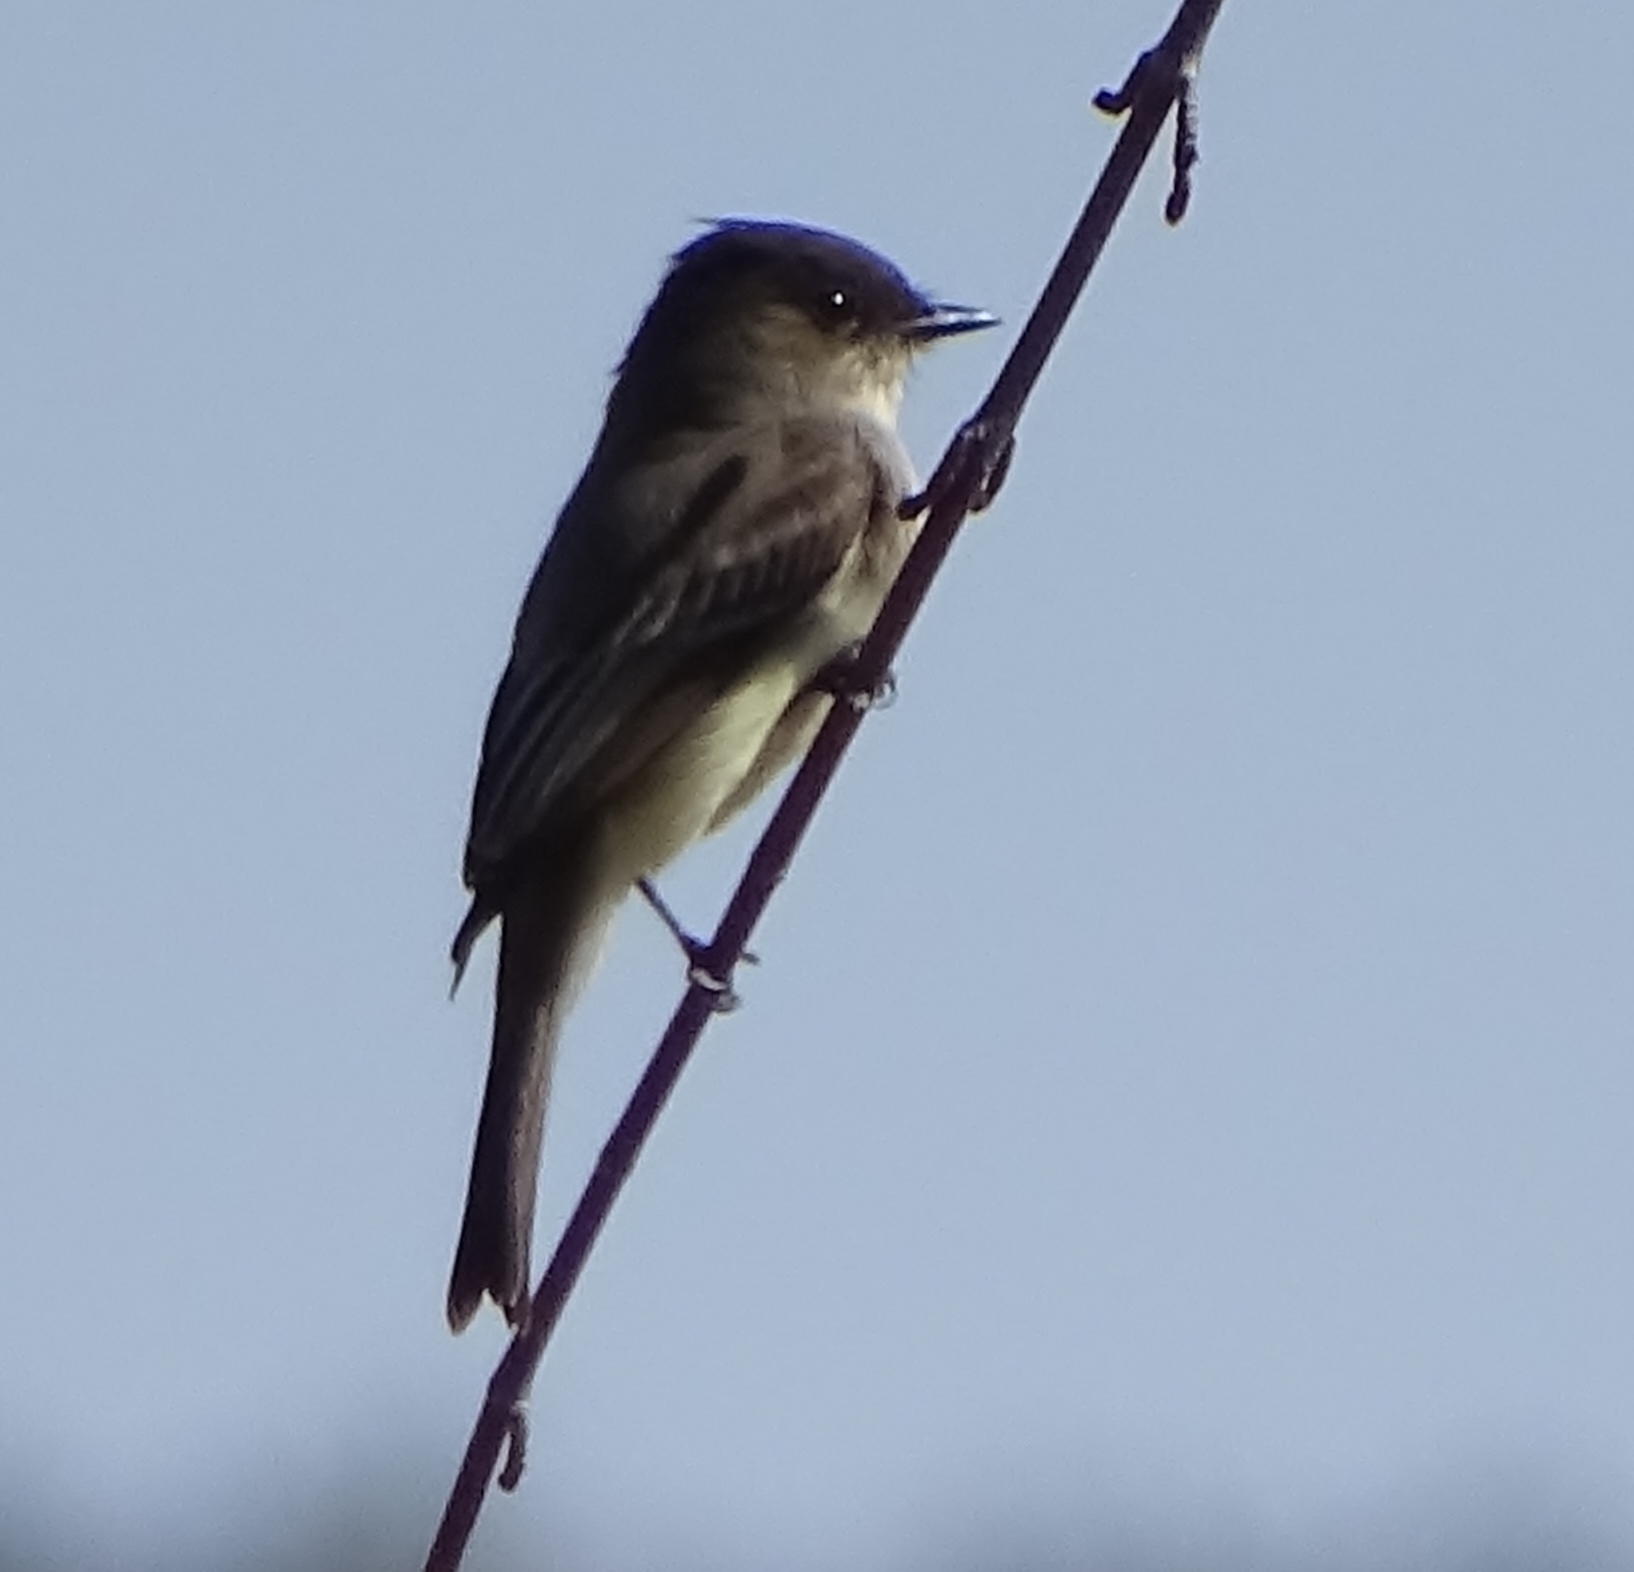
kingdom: Animalia
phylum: Chordata
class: Aves
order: Passeriformes
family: Tyrannidae
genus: Sayornis
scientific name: Sayornis phoebe
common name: Eastern phoebe
